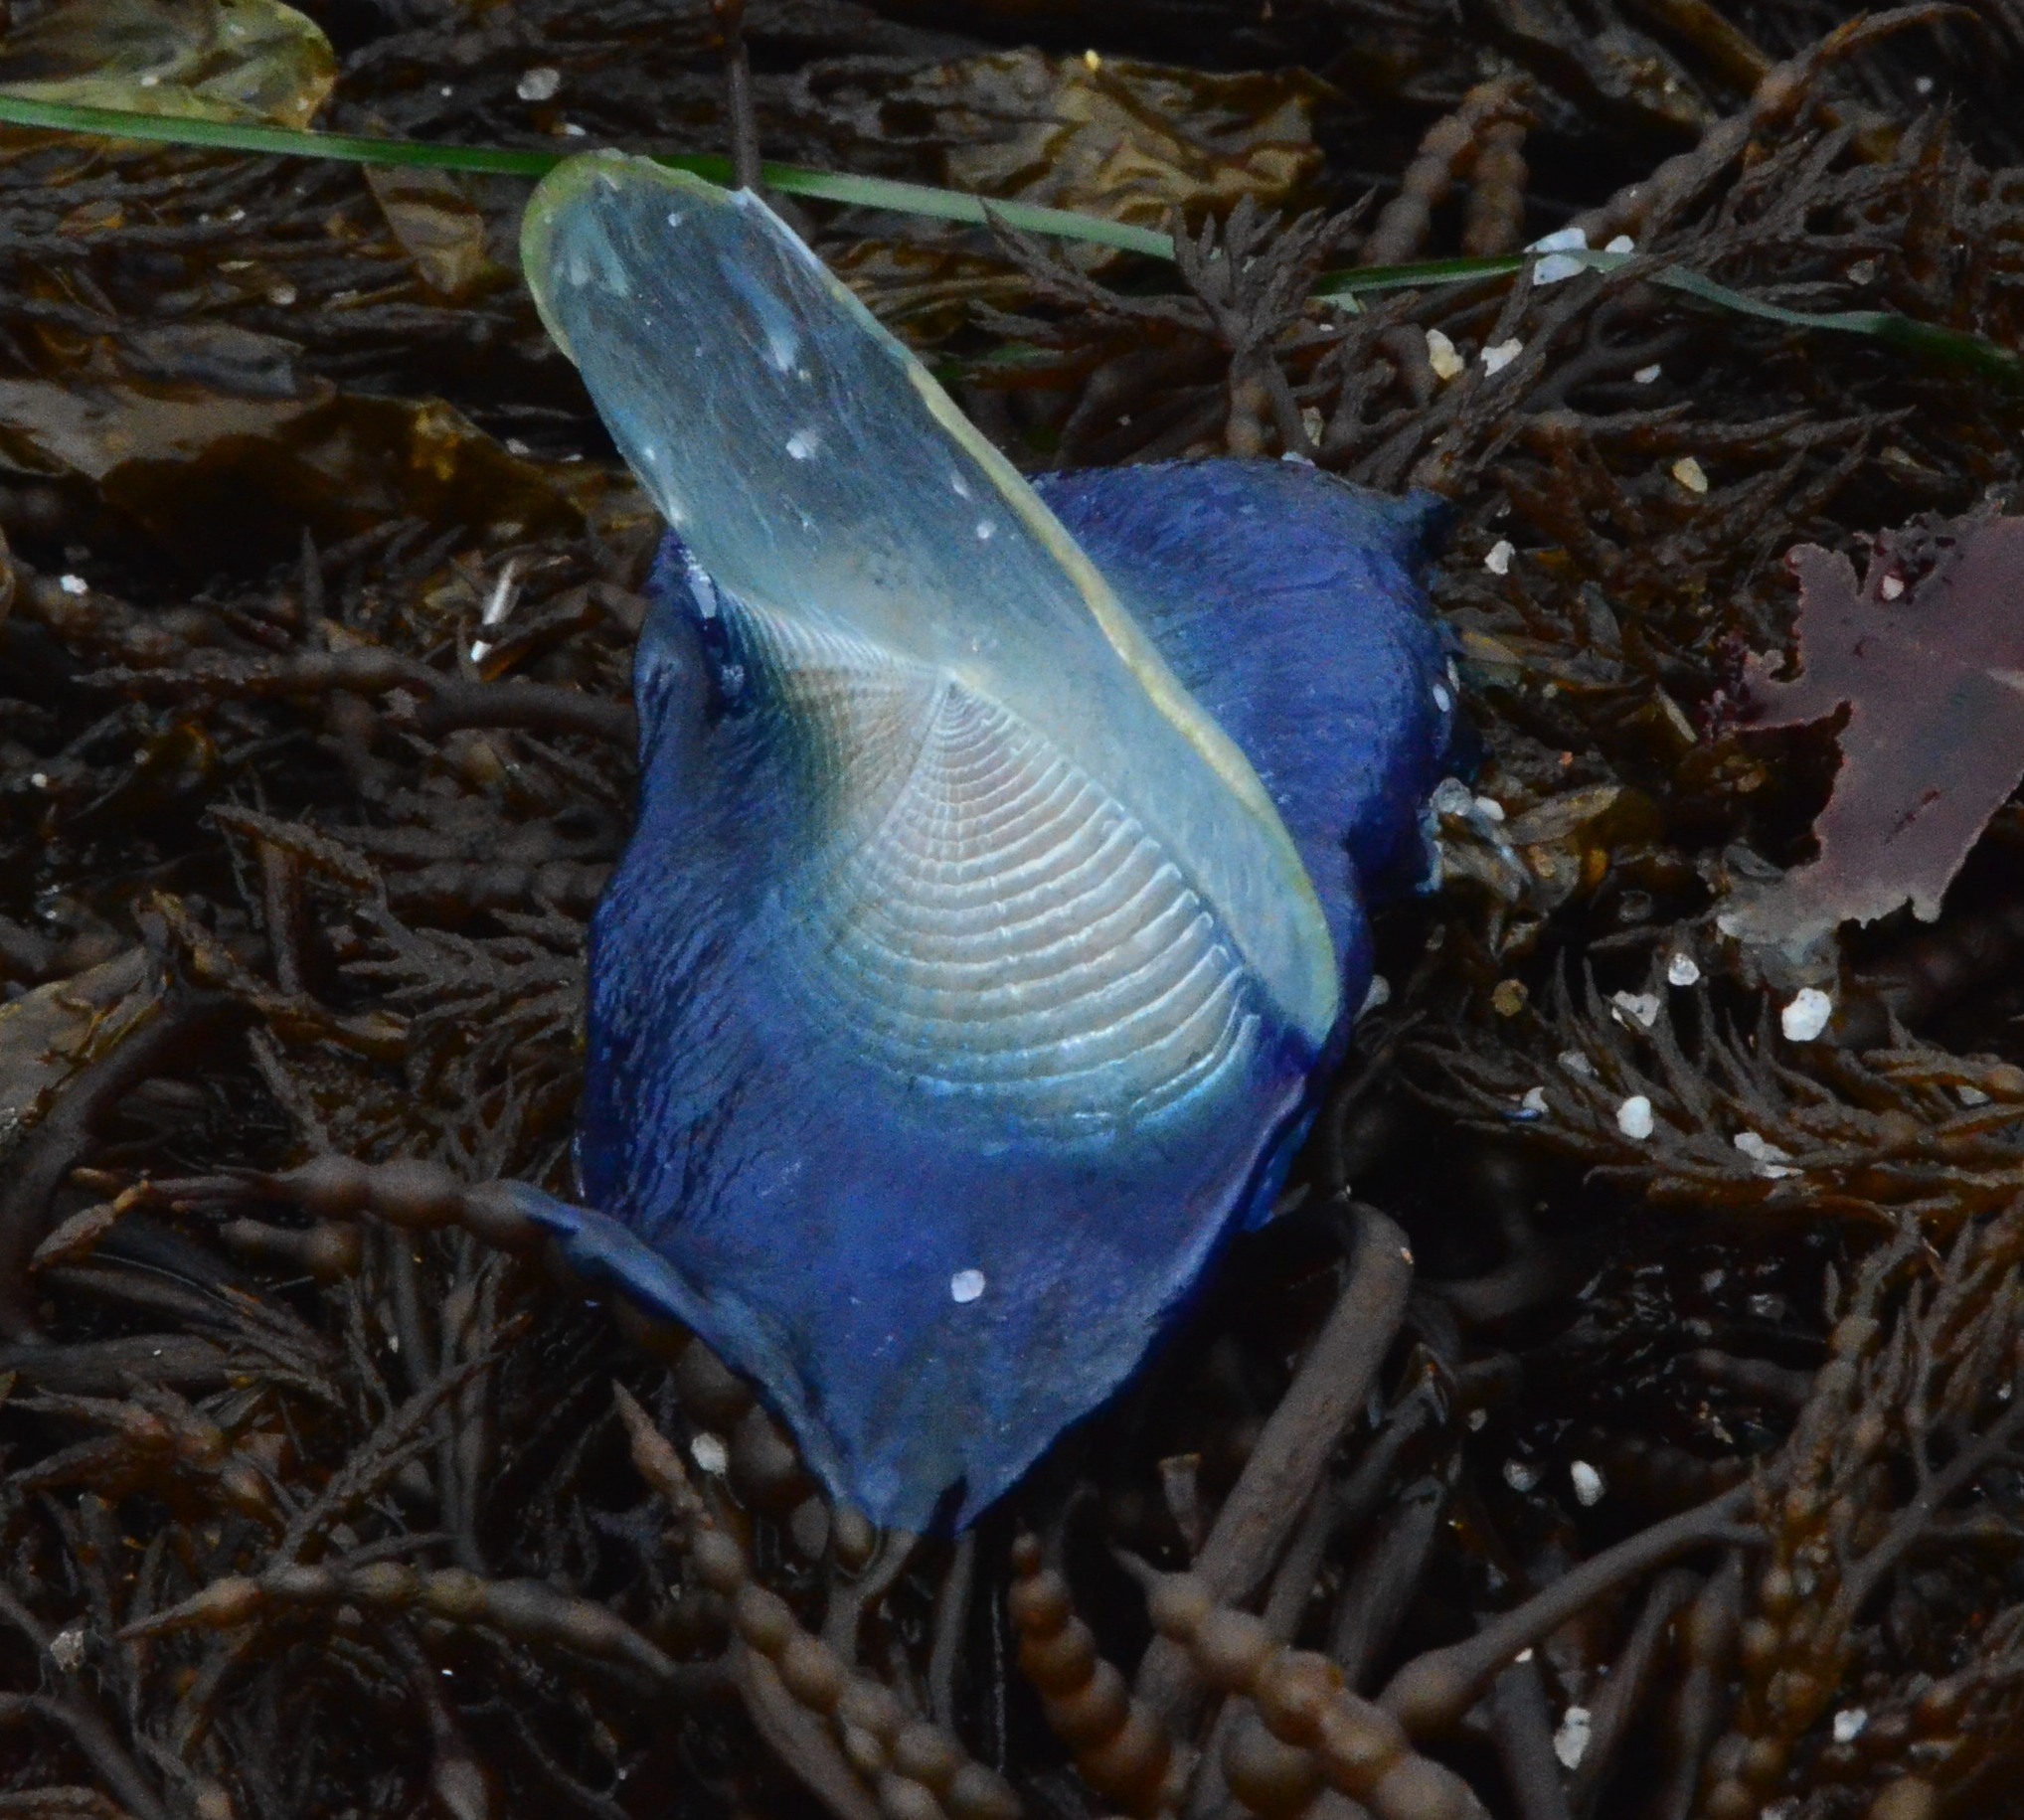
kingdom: Animalia
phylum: Cnidaria
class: Hydrozoa
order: Anthoathecata
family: Porpitidae
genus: Velella
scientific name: Velella velella
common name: By-the-wind-sailor
